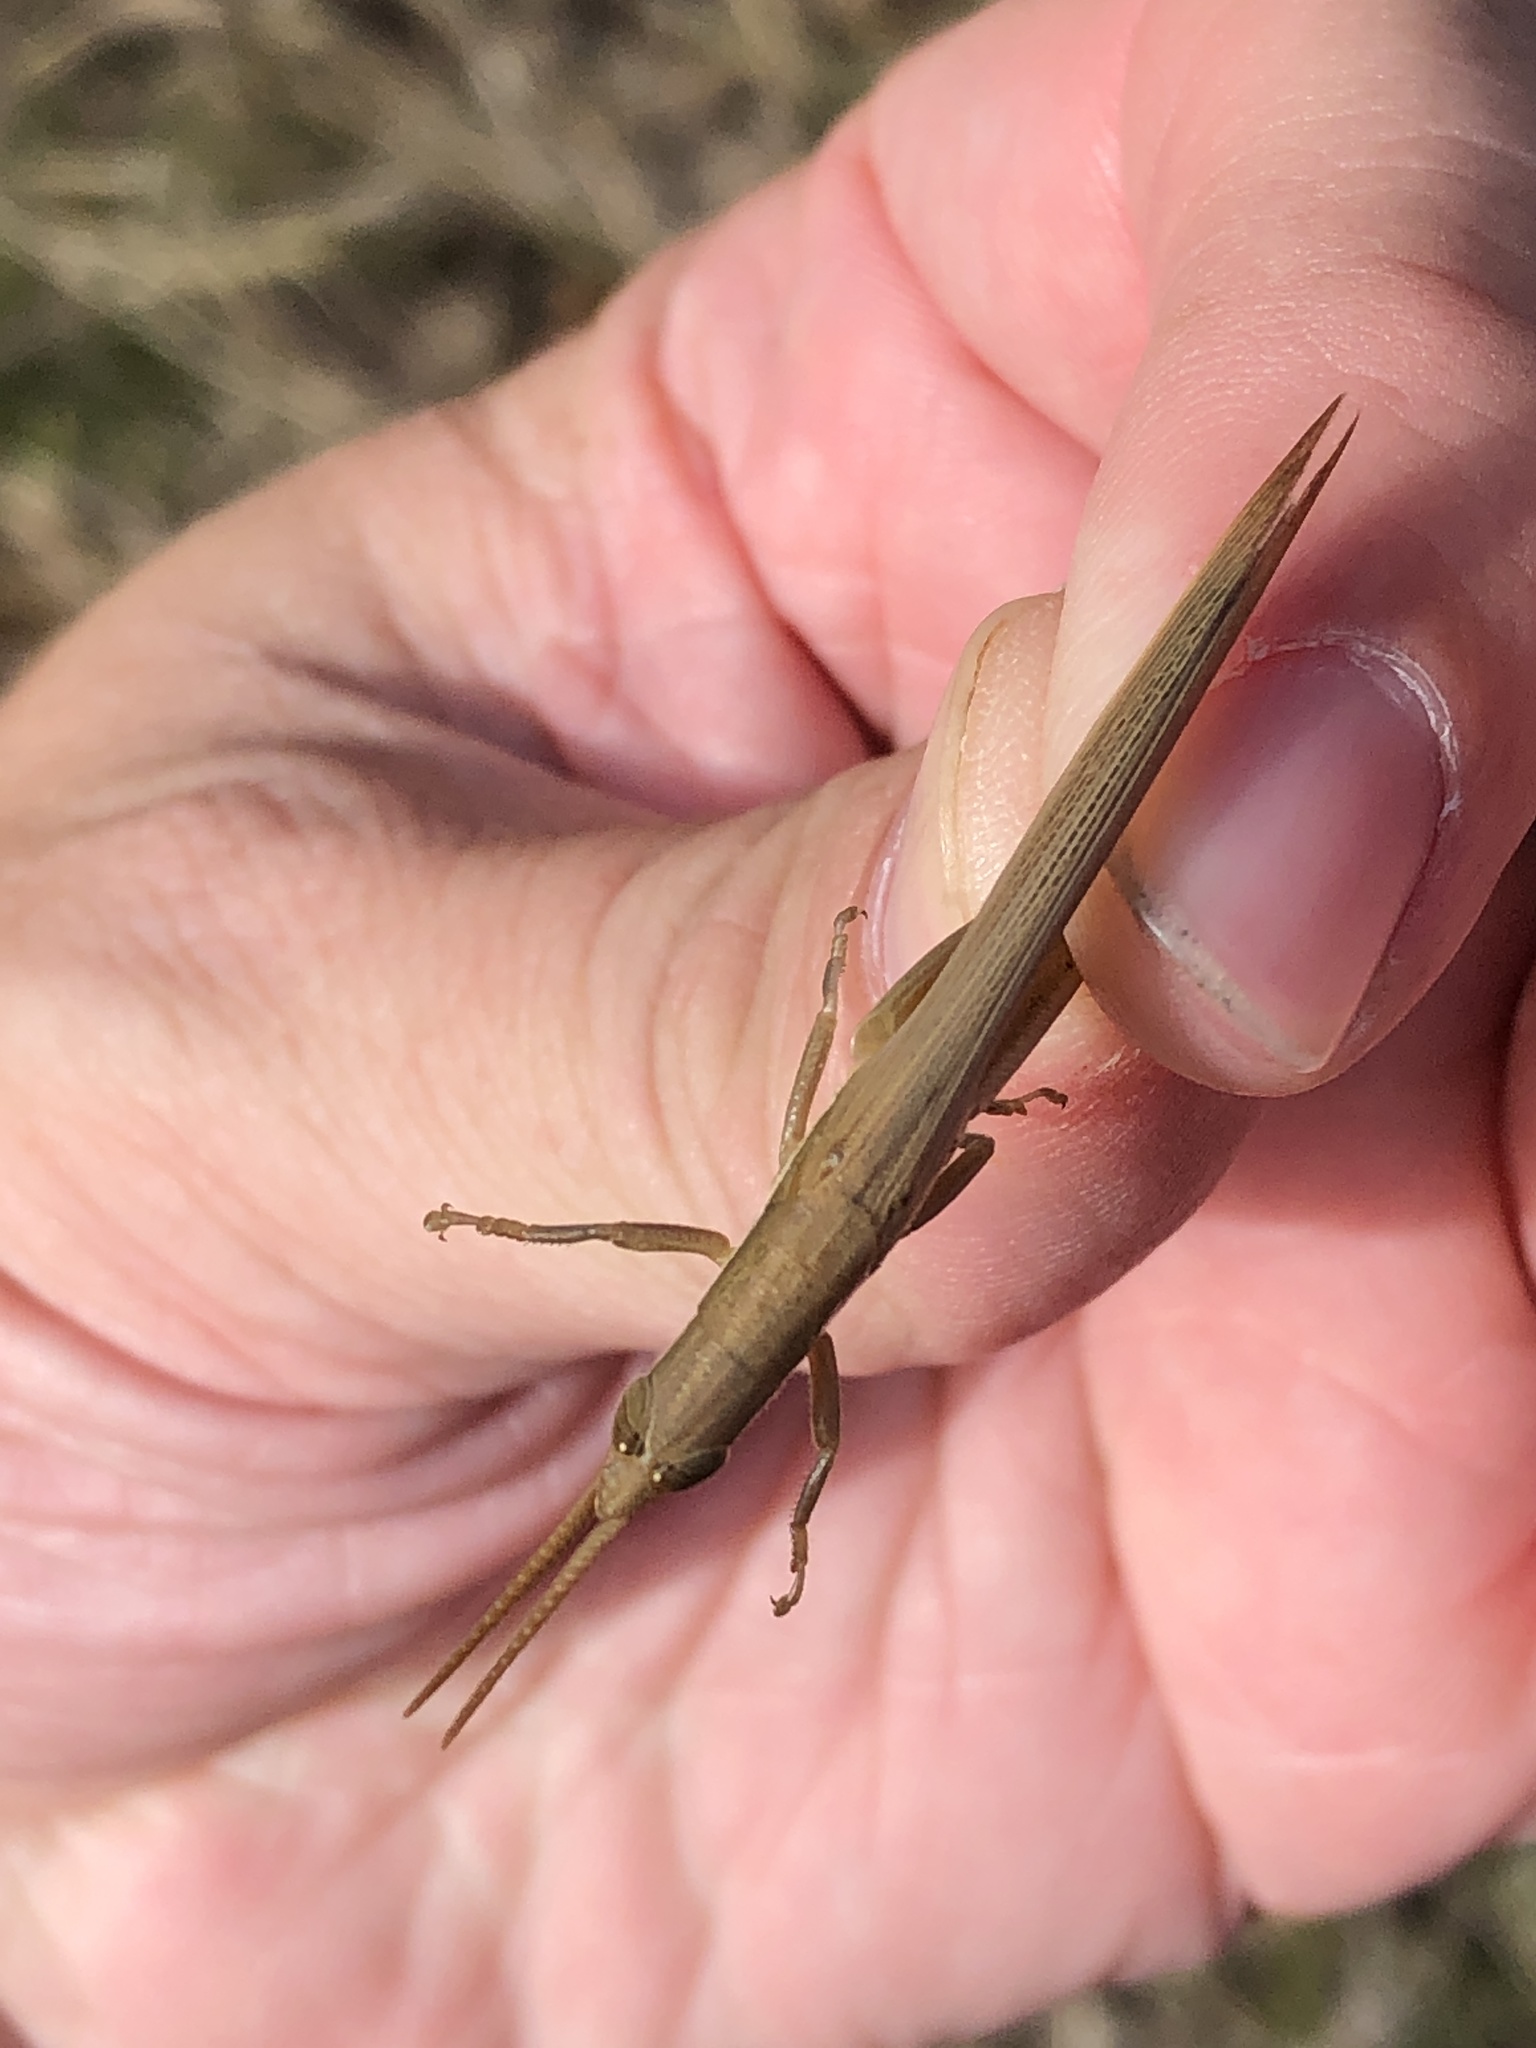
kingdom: Animalia
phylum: Arthropoda
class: Insecta
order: Orthoptera
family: Acrididae
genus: Leptysma
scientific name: Leptysma marginicollis
